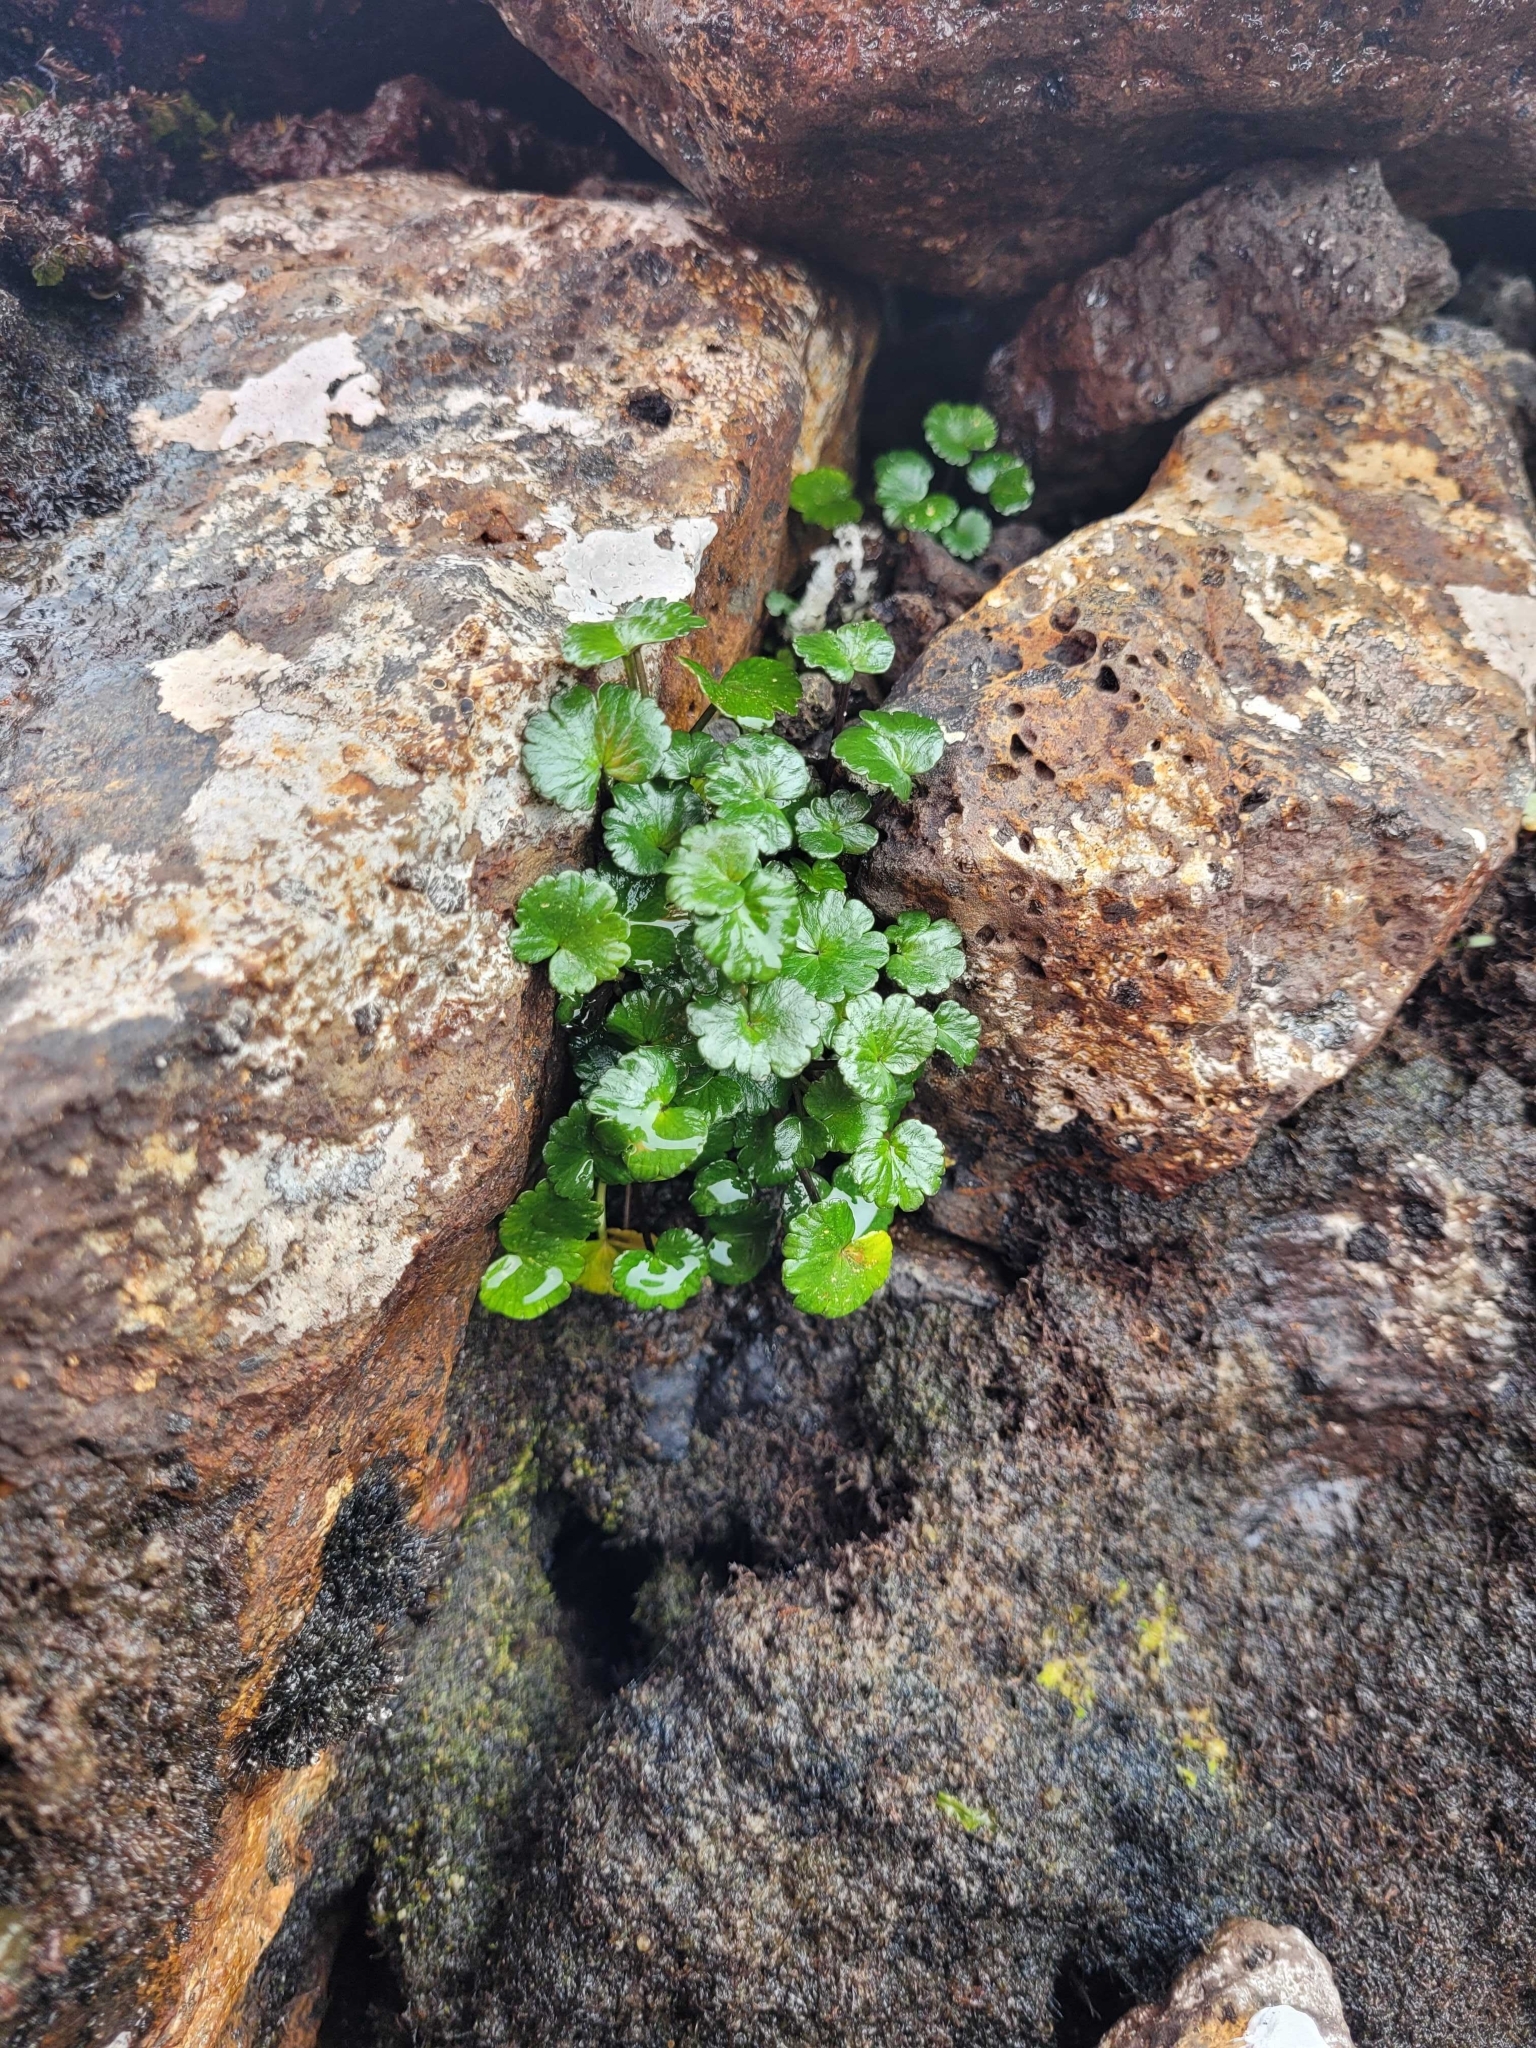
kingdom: Plantae
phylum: Tracheophyta
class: Magnoliopsida
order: Apiales
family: Apiaceae
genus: Azorella
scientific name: Azorella schizeilema
